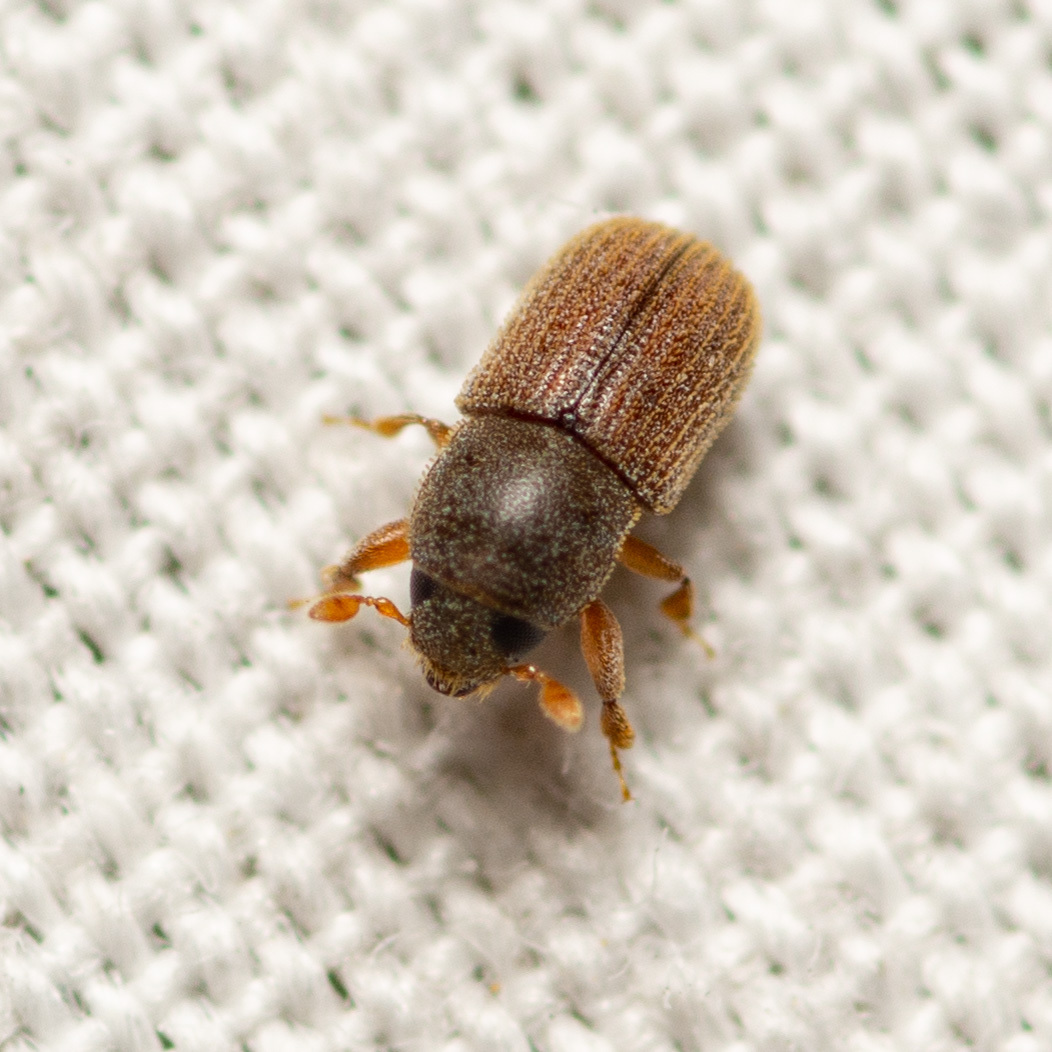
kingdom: Animalia
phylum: Arthropoda
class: Insecta
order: Coleoptera
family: Curculionidae
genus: Pycnarthrum
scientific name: Pycnarthrum hispidum
